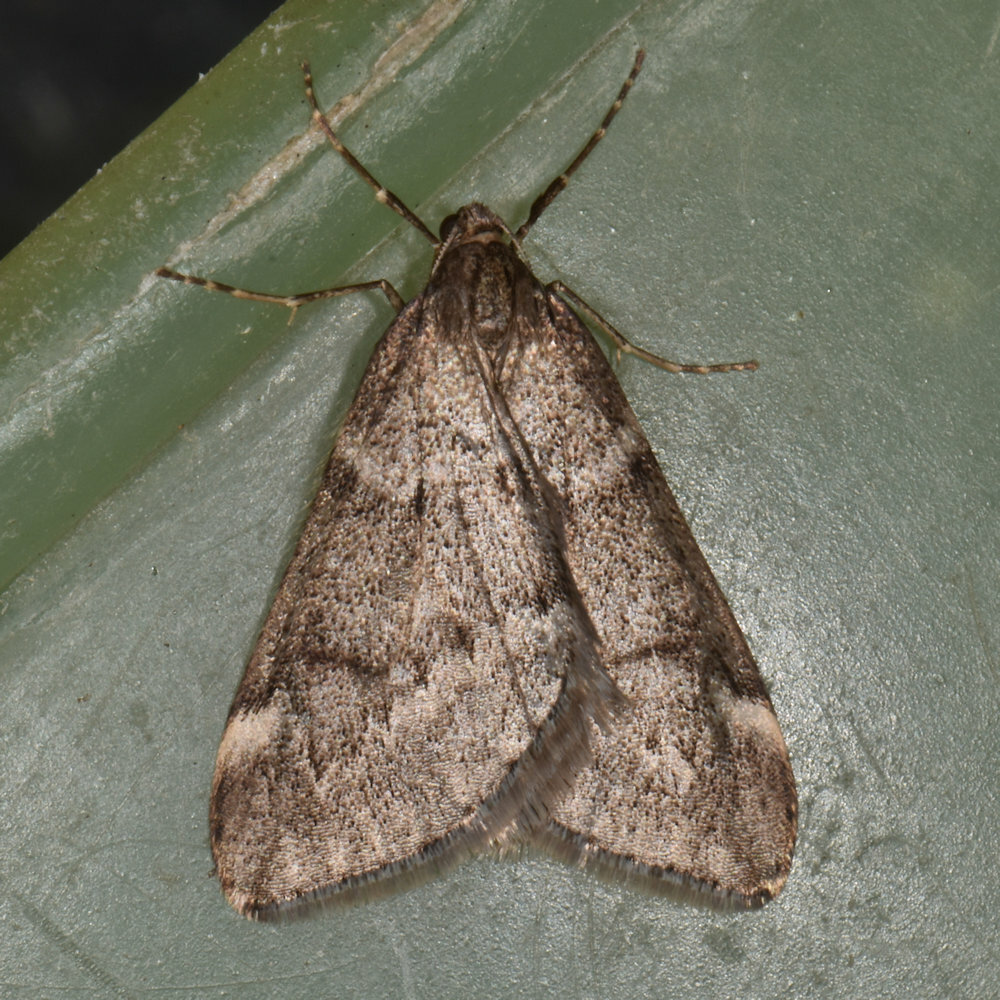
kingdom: Animalia
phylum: Arthropoda
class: Insecta
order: Lepidoptera
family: Geometridae
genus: Alsophila
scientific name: Alsophila pometaria
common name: Fall cankerworm
